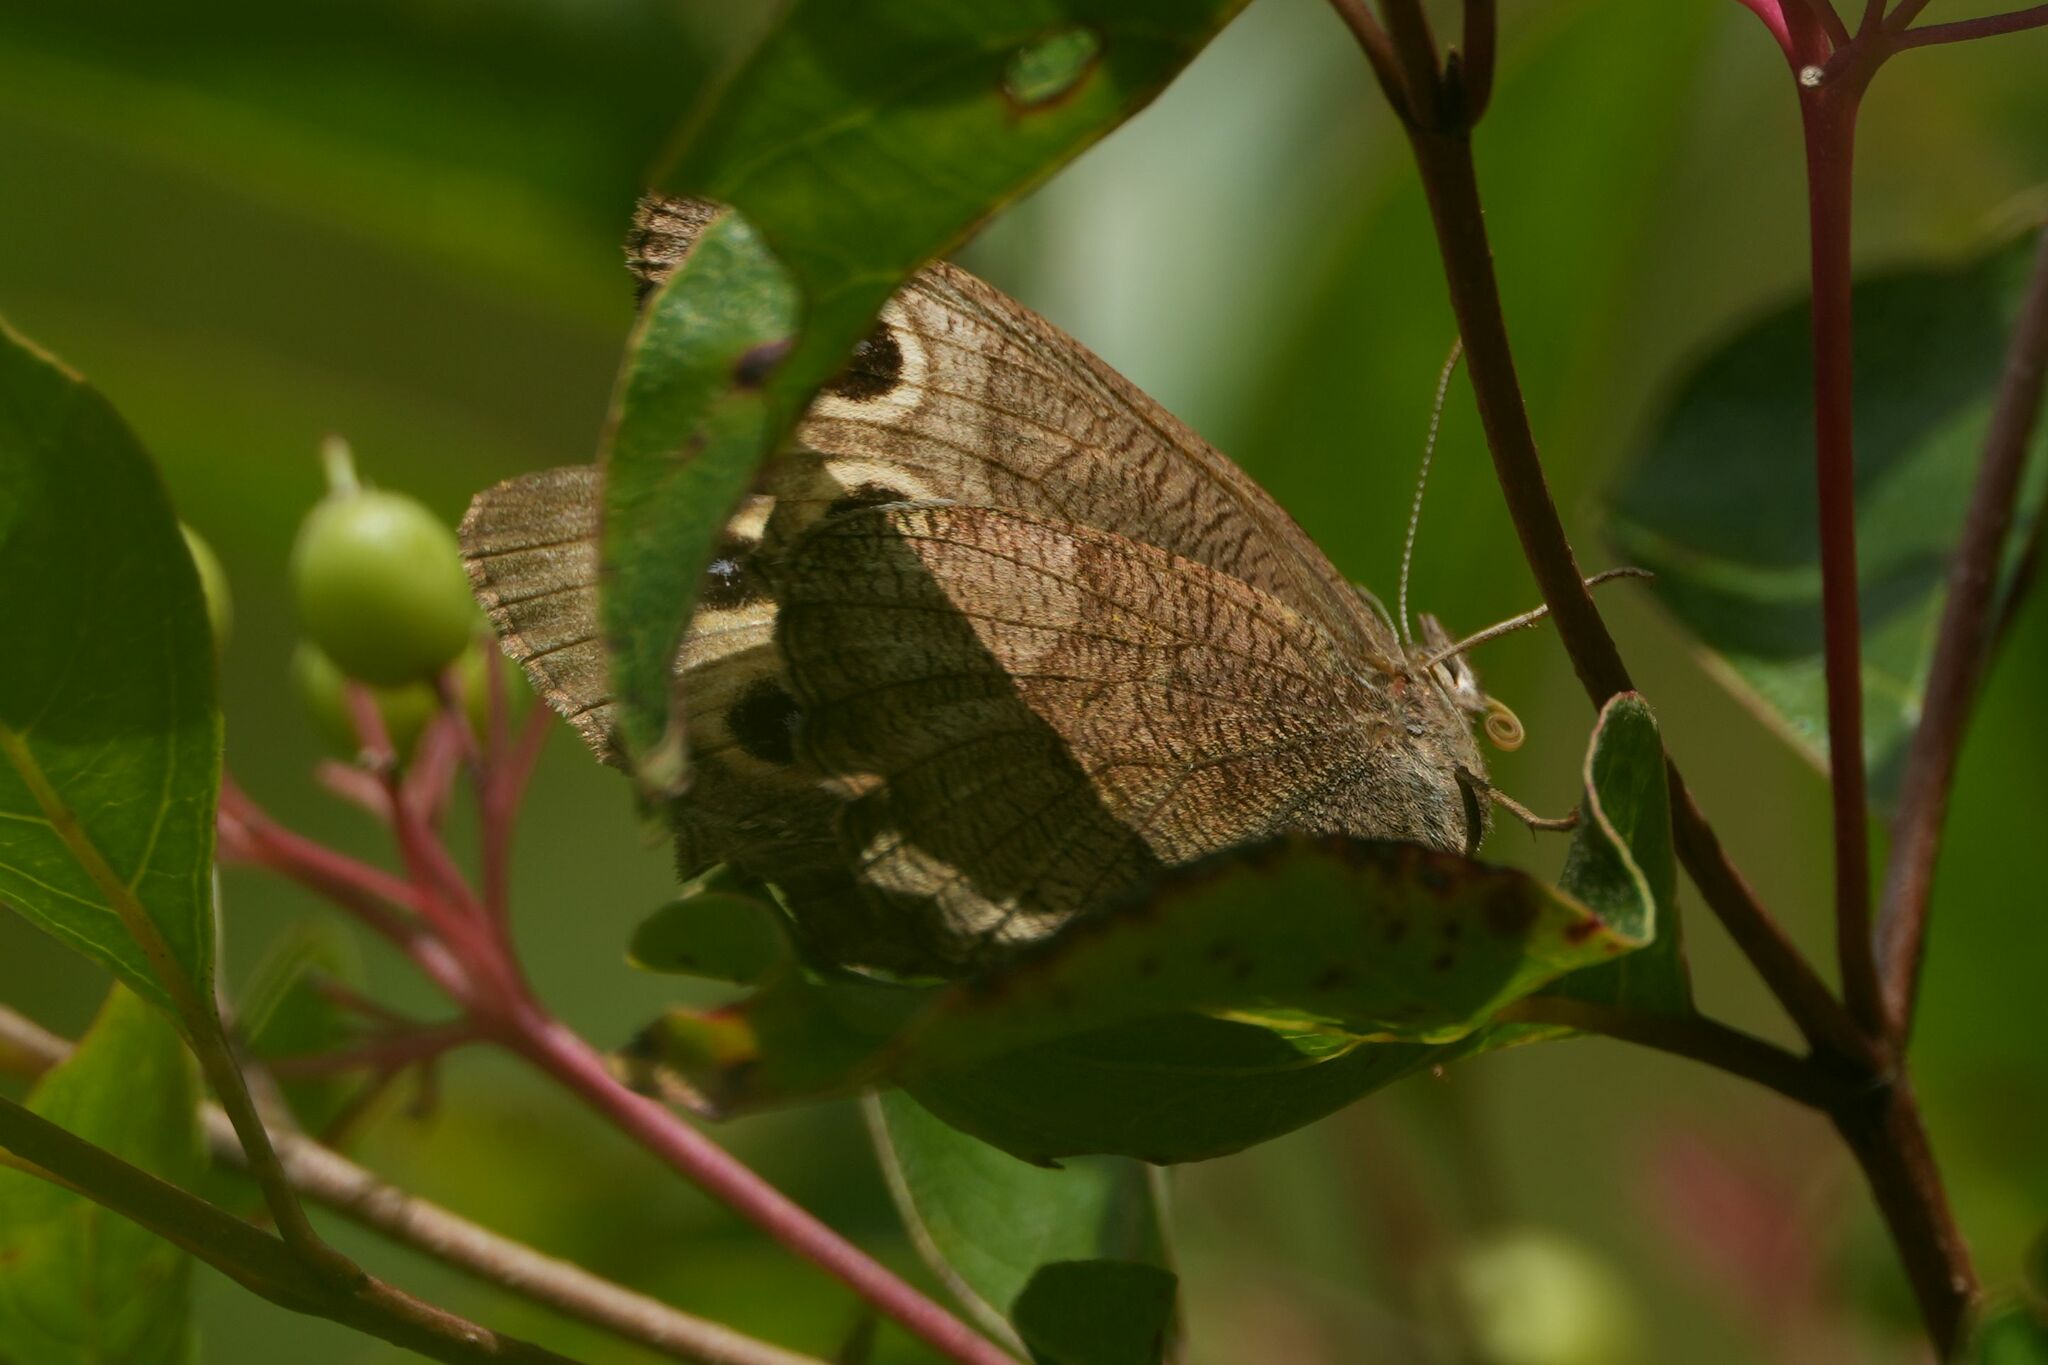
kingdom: Animalia
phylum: Arthropoda
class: Insecta
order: Lepidoptera
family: Nymphalidae
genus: Cercyonis
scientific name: Cercyonis pegala
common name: Common wood-nymph
